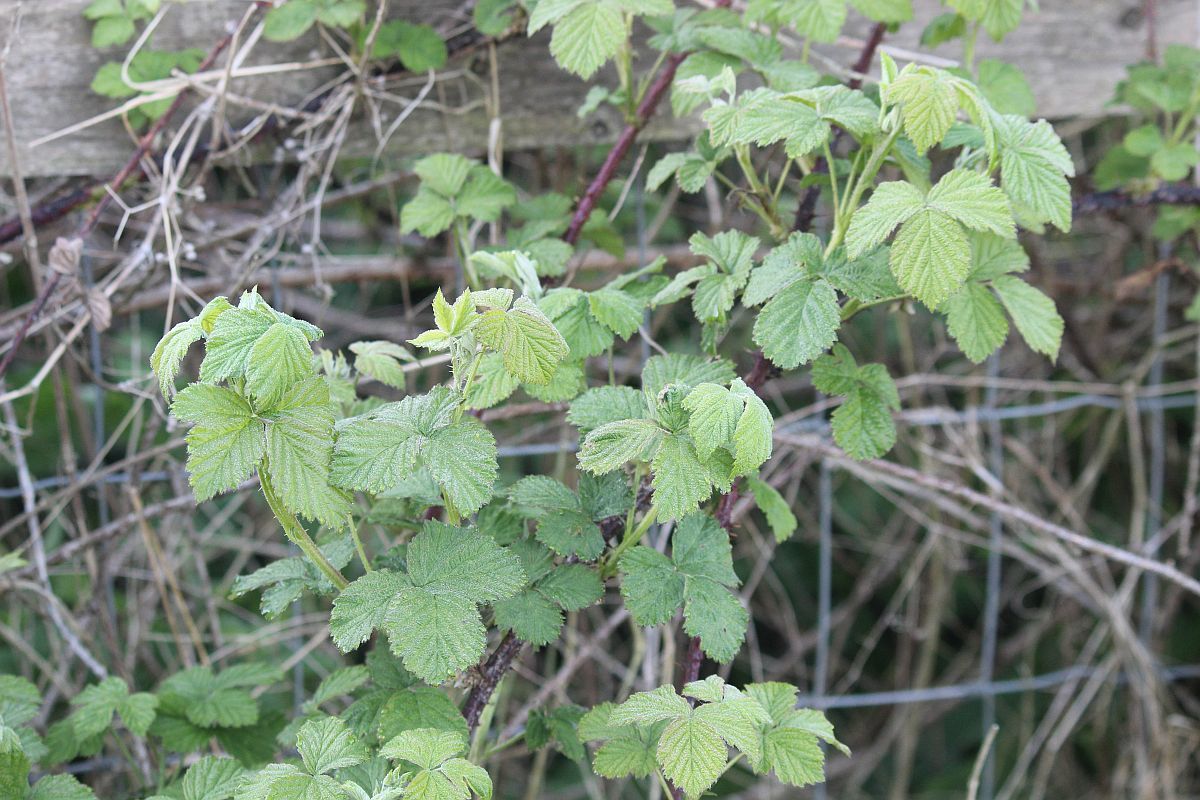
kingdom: Plantae
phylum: Tracheophyta
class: Magnoliopsida
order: Rosales
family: Rosaceae
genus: Rubus
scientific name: Rubus
